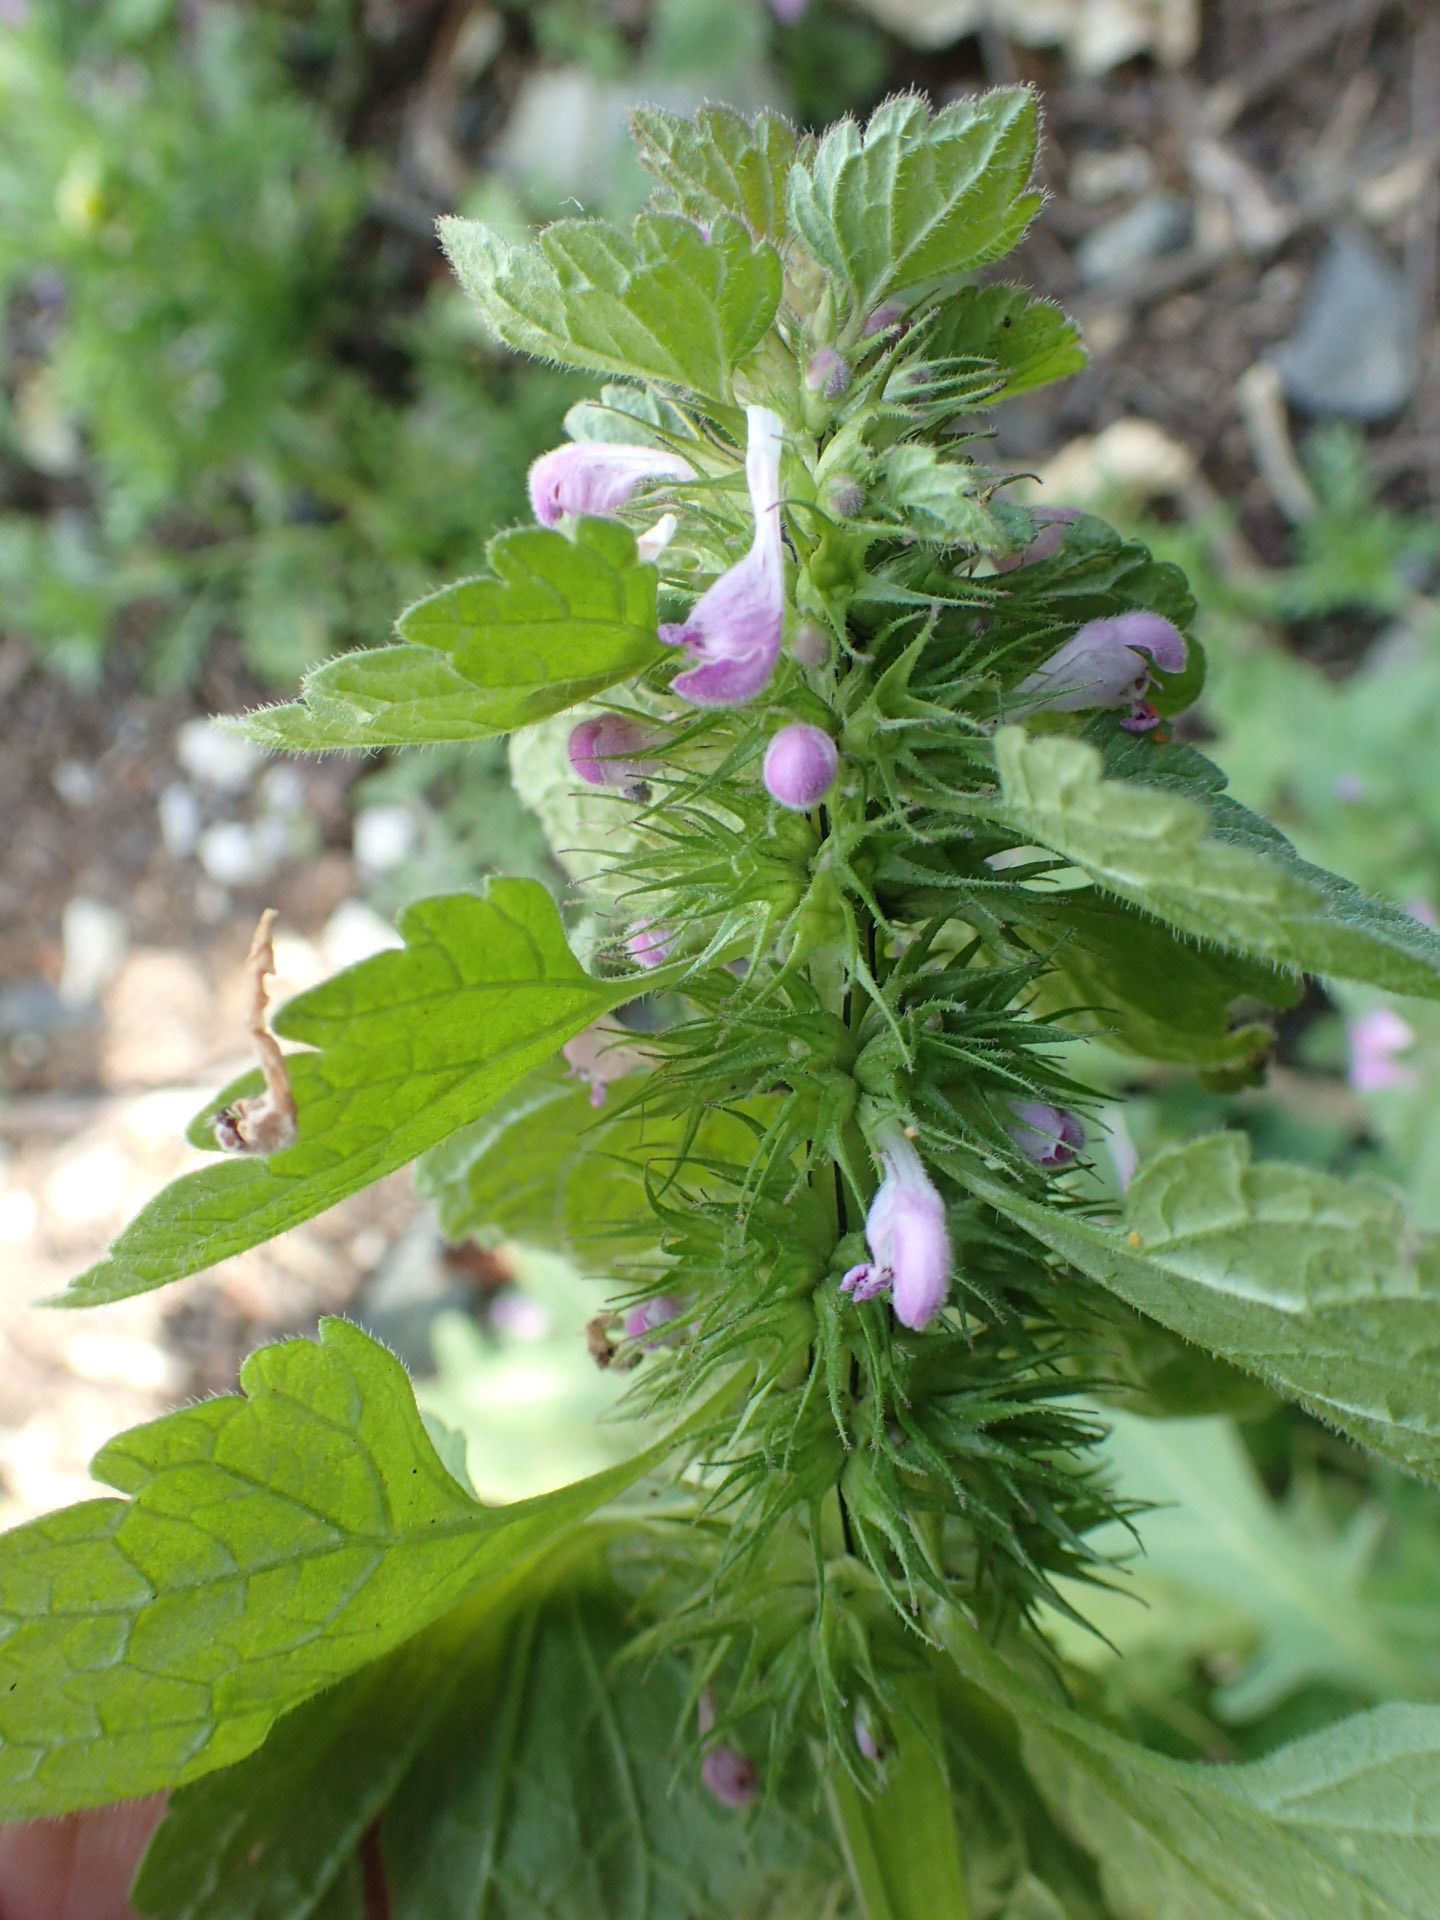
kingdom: Plantae
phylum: Tracheophyta
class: Magnoliopsida
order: Lamiales
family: Lamiaceae
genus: Lamium
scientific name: Lamium purpureum
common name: Red dead-nettle
